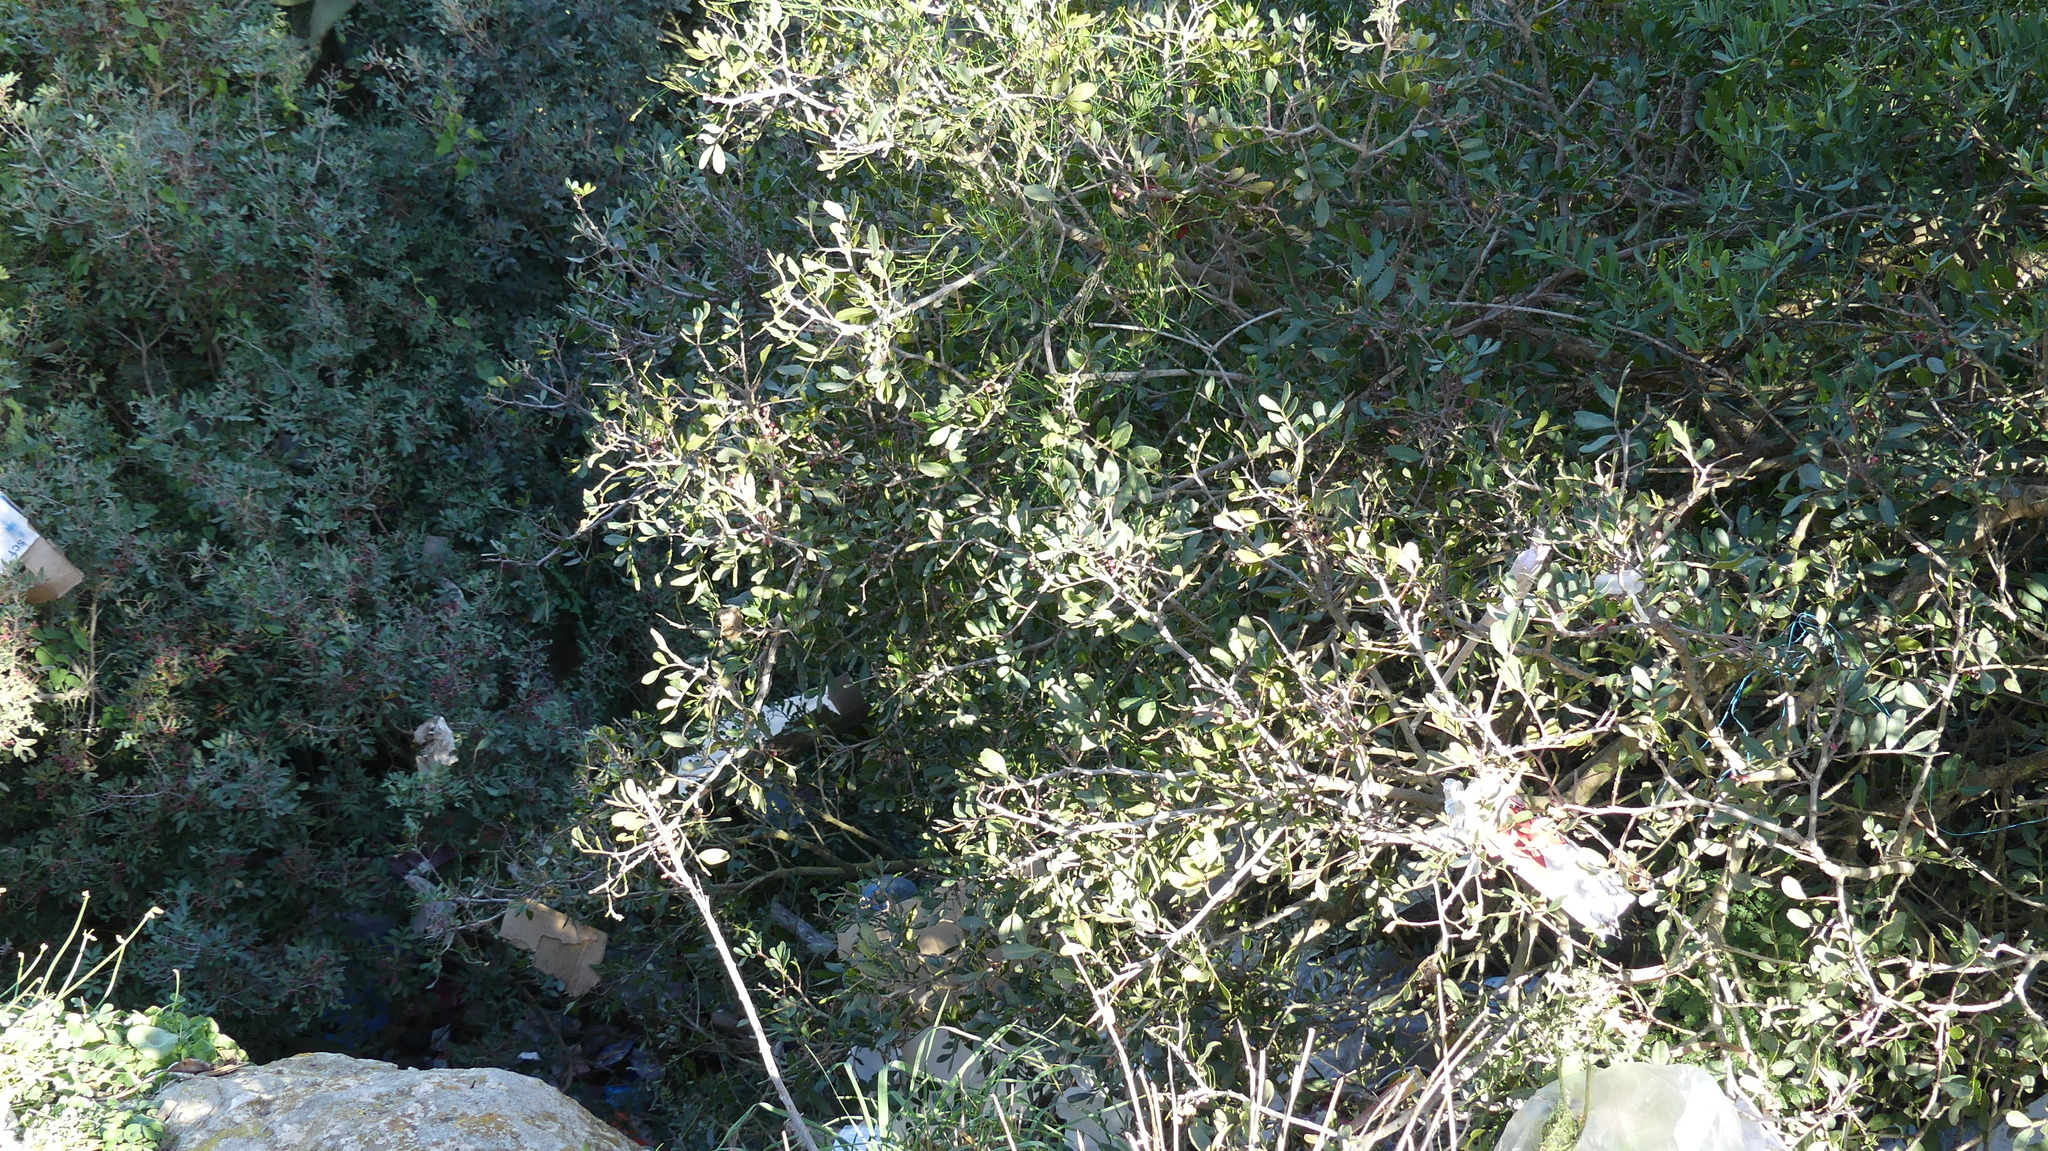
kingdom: Plantae
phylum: Tracheophyta
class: Magnoliopsida
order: Sapindales
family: Anacardiaceae
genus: Pistacia
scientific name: Pistacia lentiscus
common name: Lentisk
